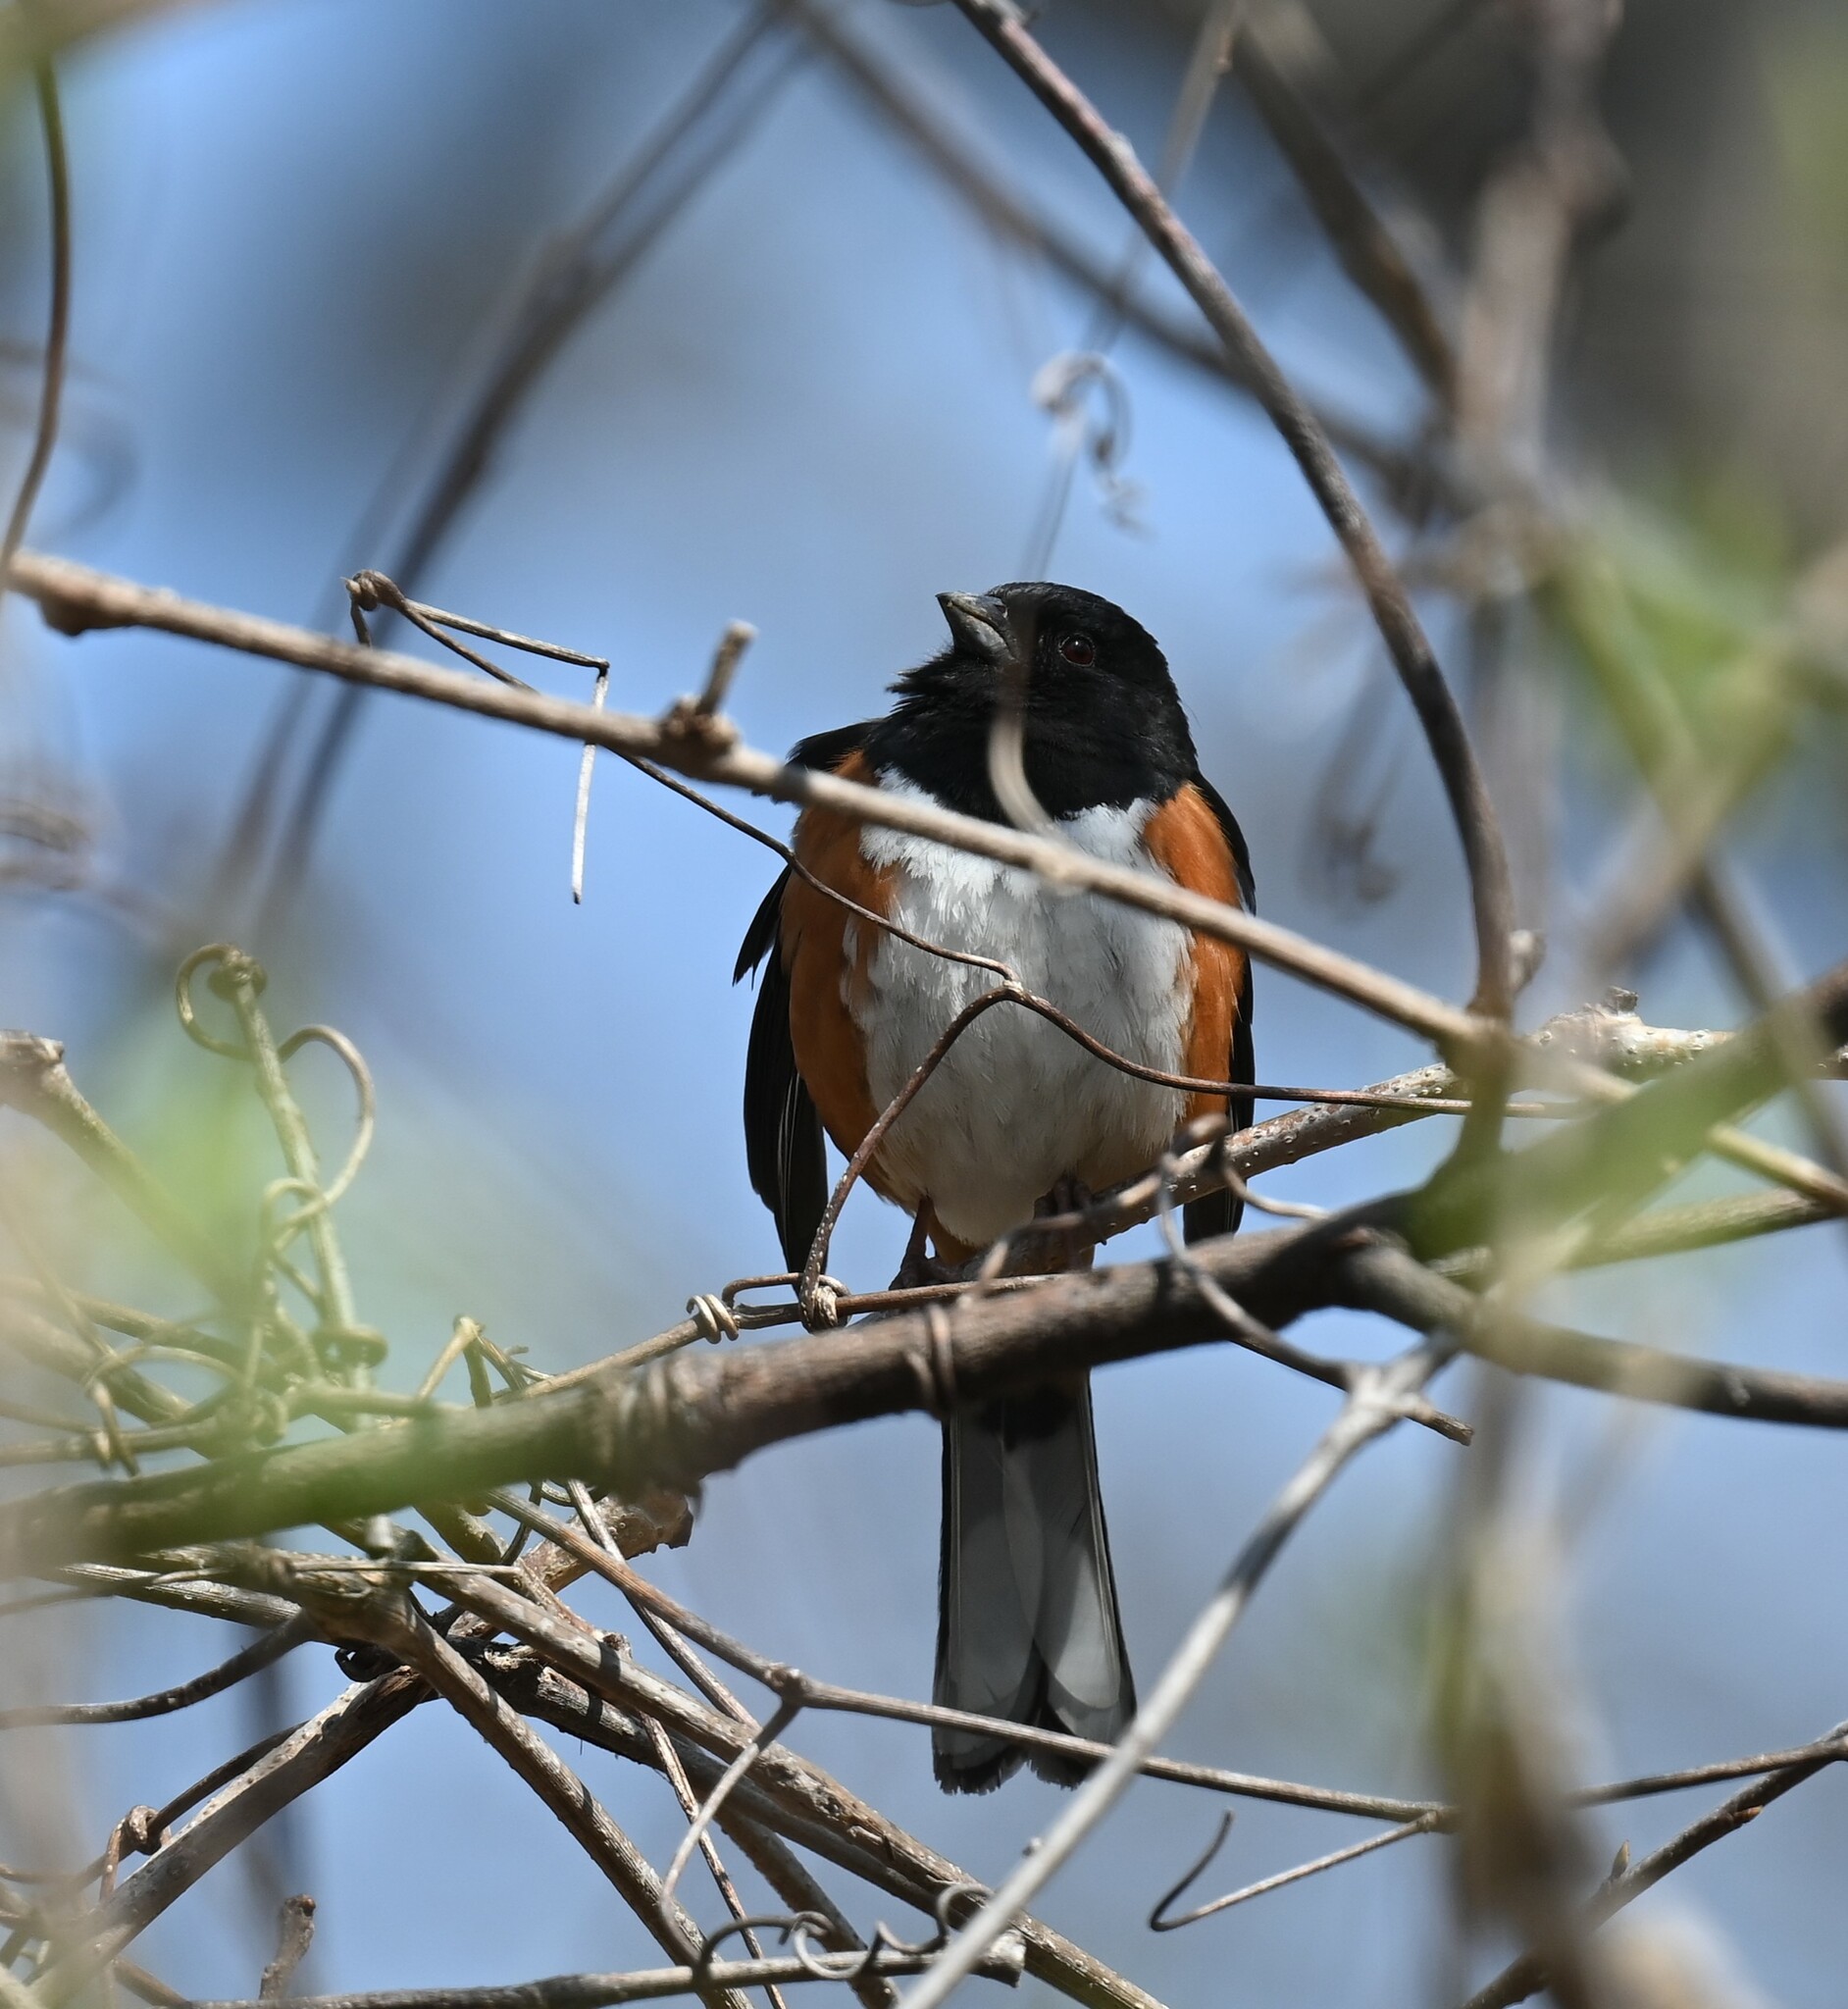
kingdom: Animalia
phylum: Chordata
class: Aves
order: Passeriformes
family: Passerellidae
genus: Pipilo
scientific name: Pipilo erythrophthalmus
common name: Eastern towhee
